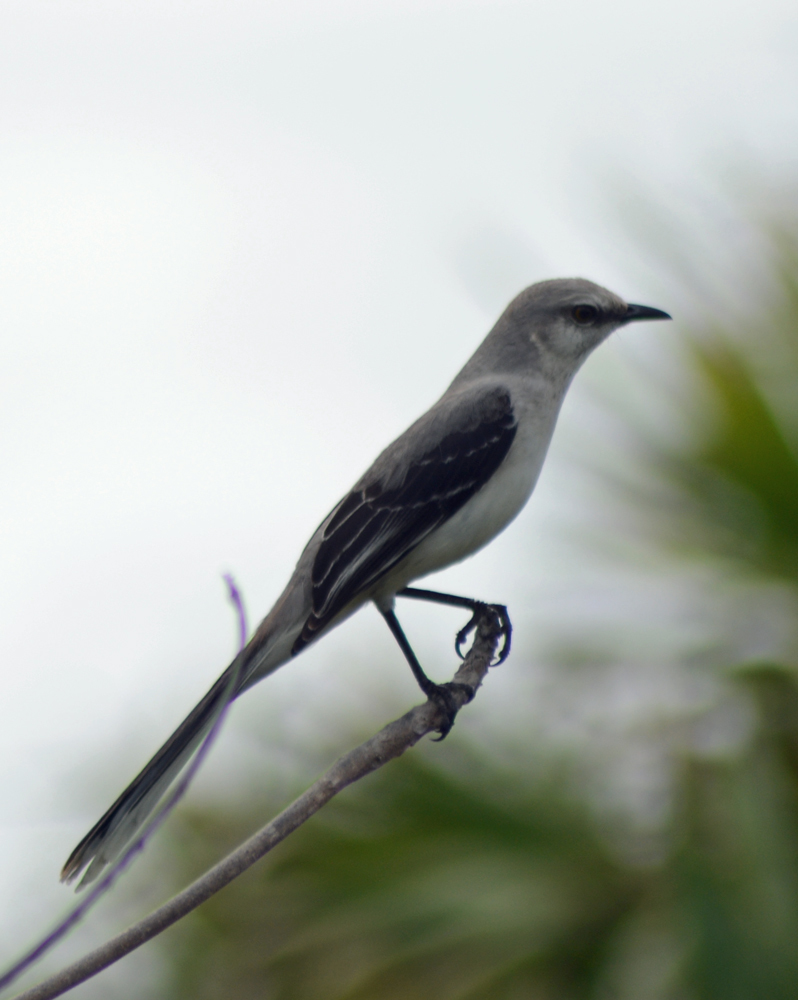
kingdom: Animalia
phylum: Chordata
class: Aves
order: Passeriformes
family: Mimidae
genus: Mimus
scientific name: Mimus gilvus
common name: Tropical mockingbird
